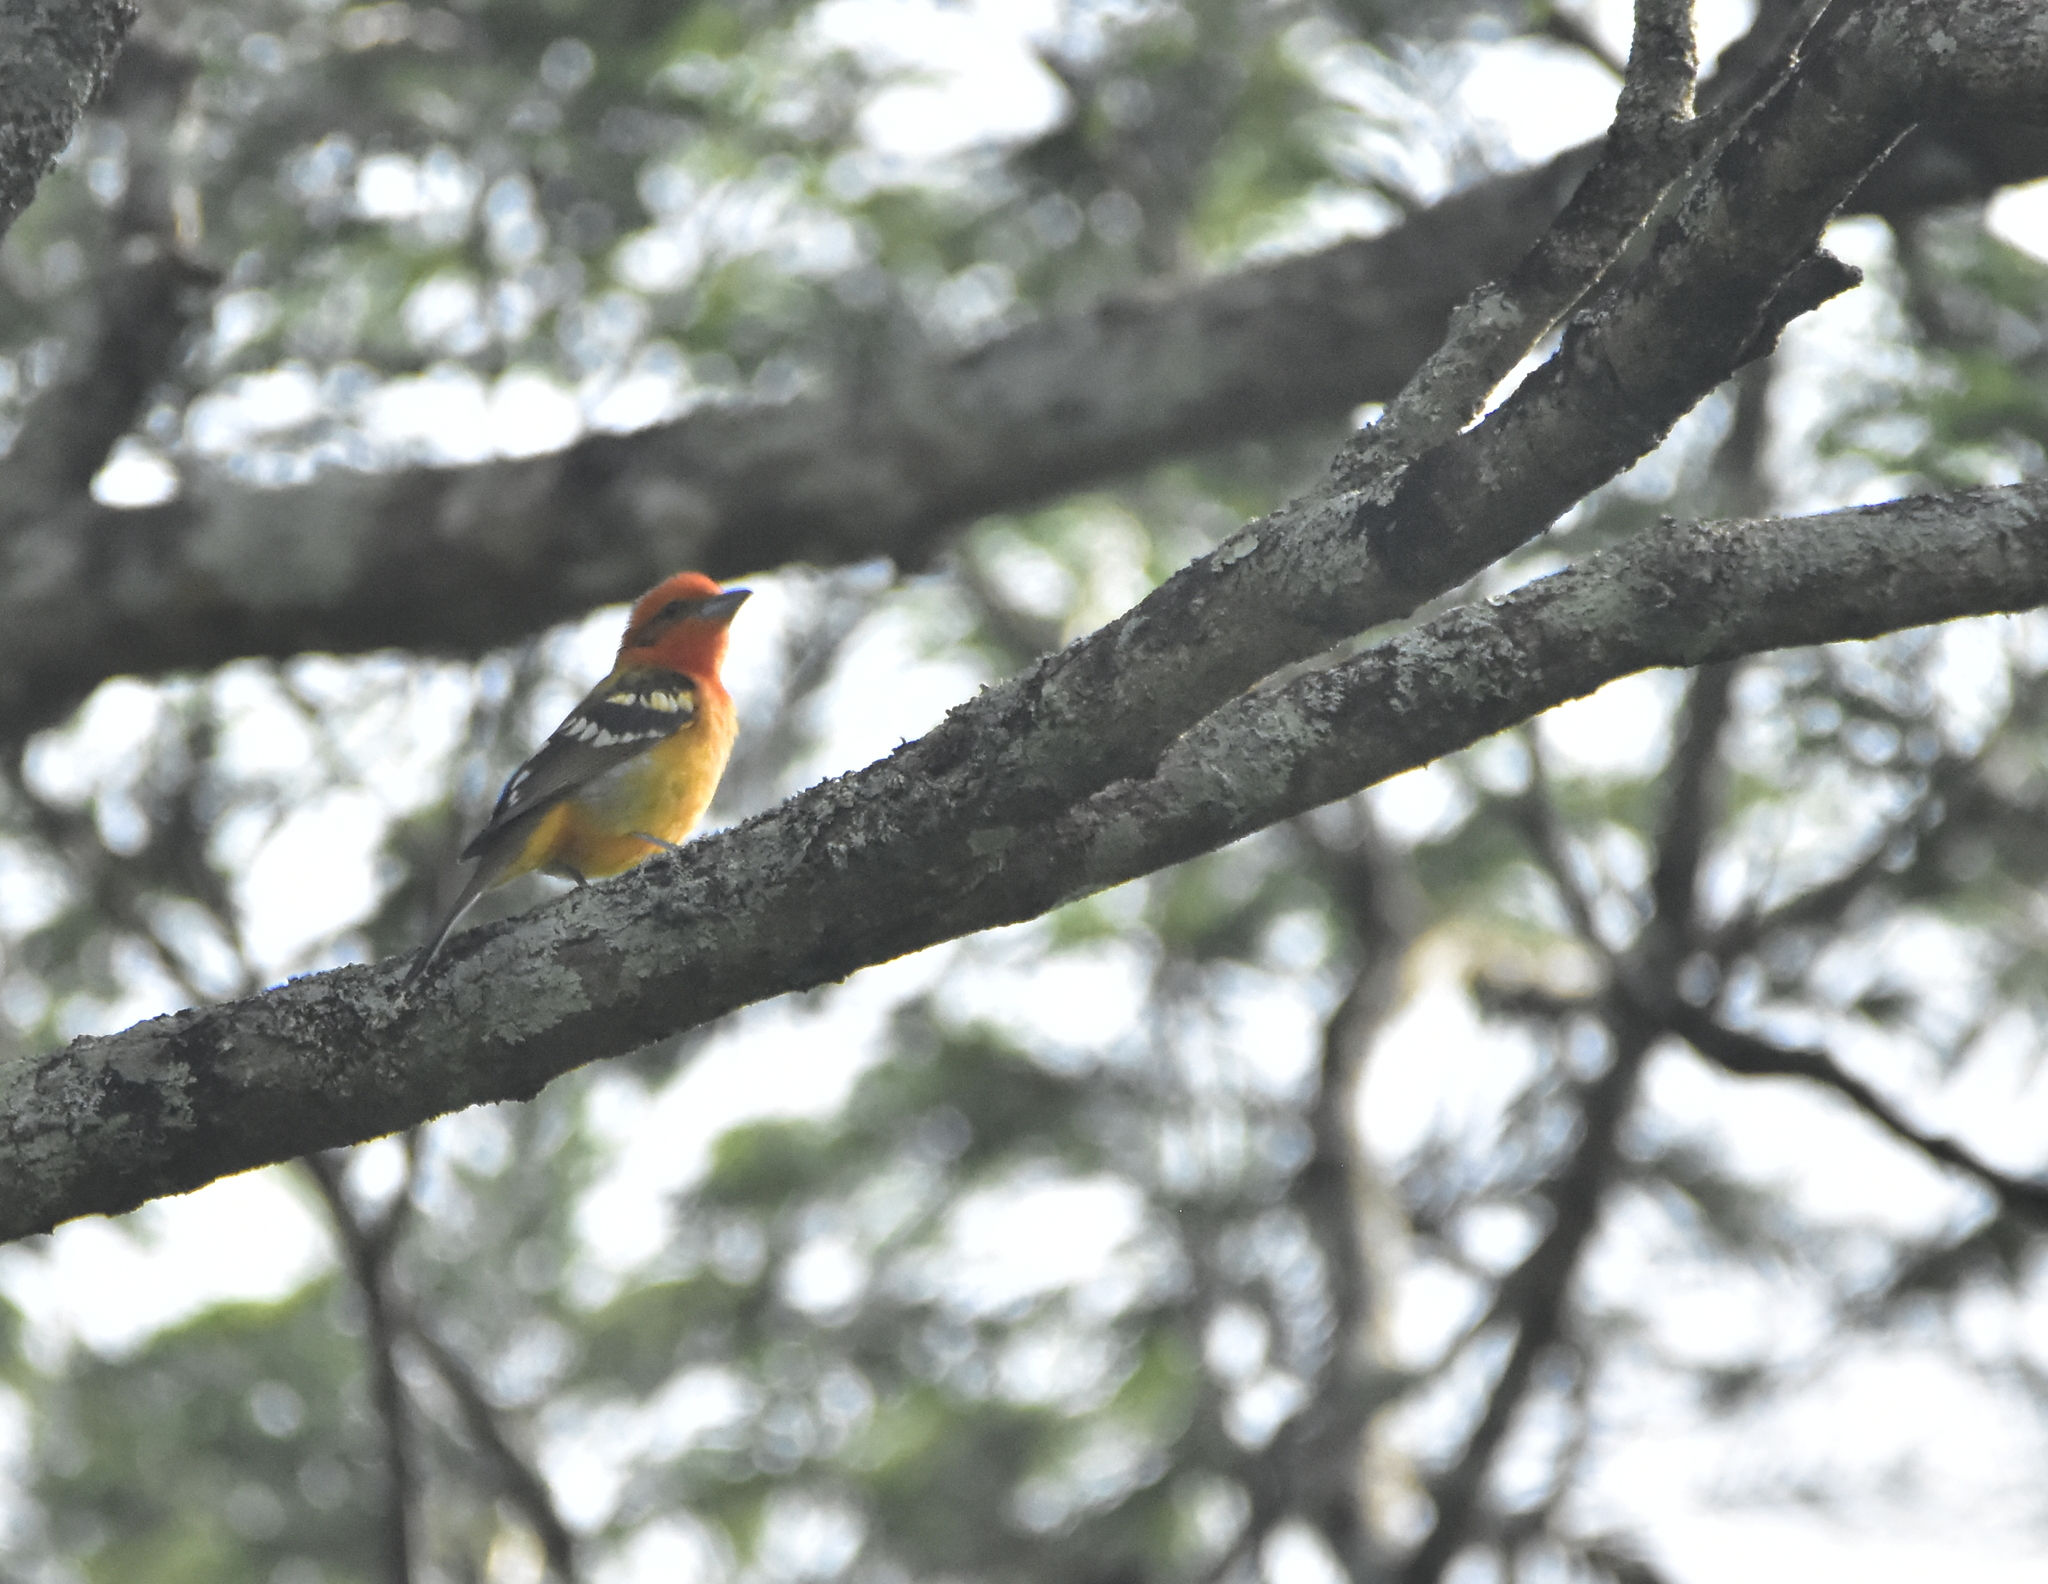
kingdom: Animalia
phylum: Chordata
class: Aves
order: Passeriformes
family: Cardinalidae
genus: Piranga
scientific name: Piranga bidentata
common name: Flame-colored tanager
